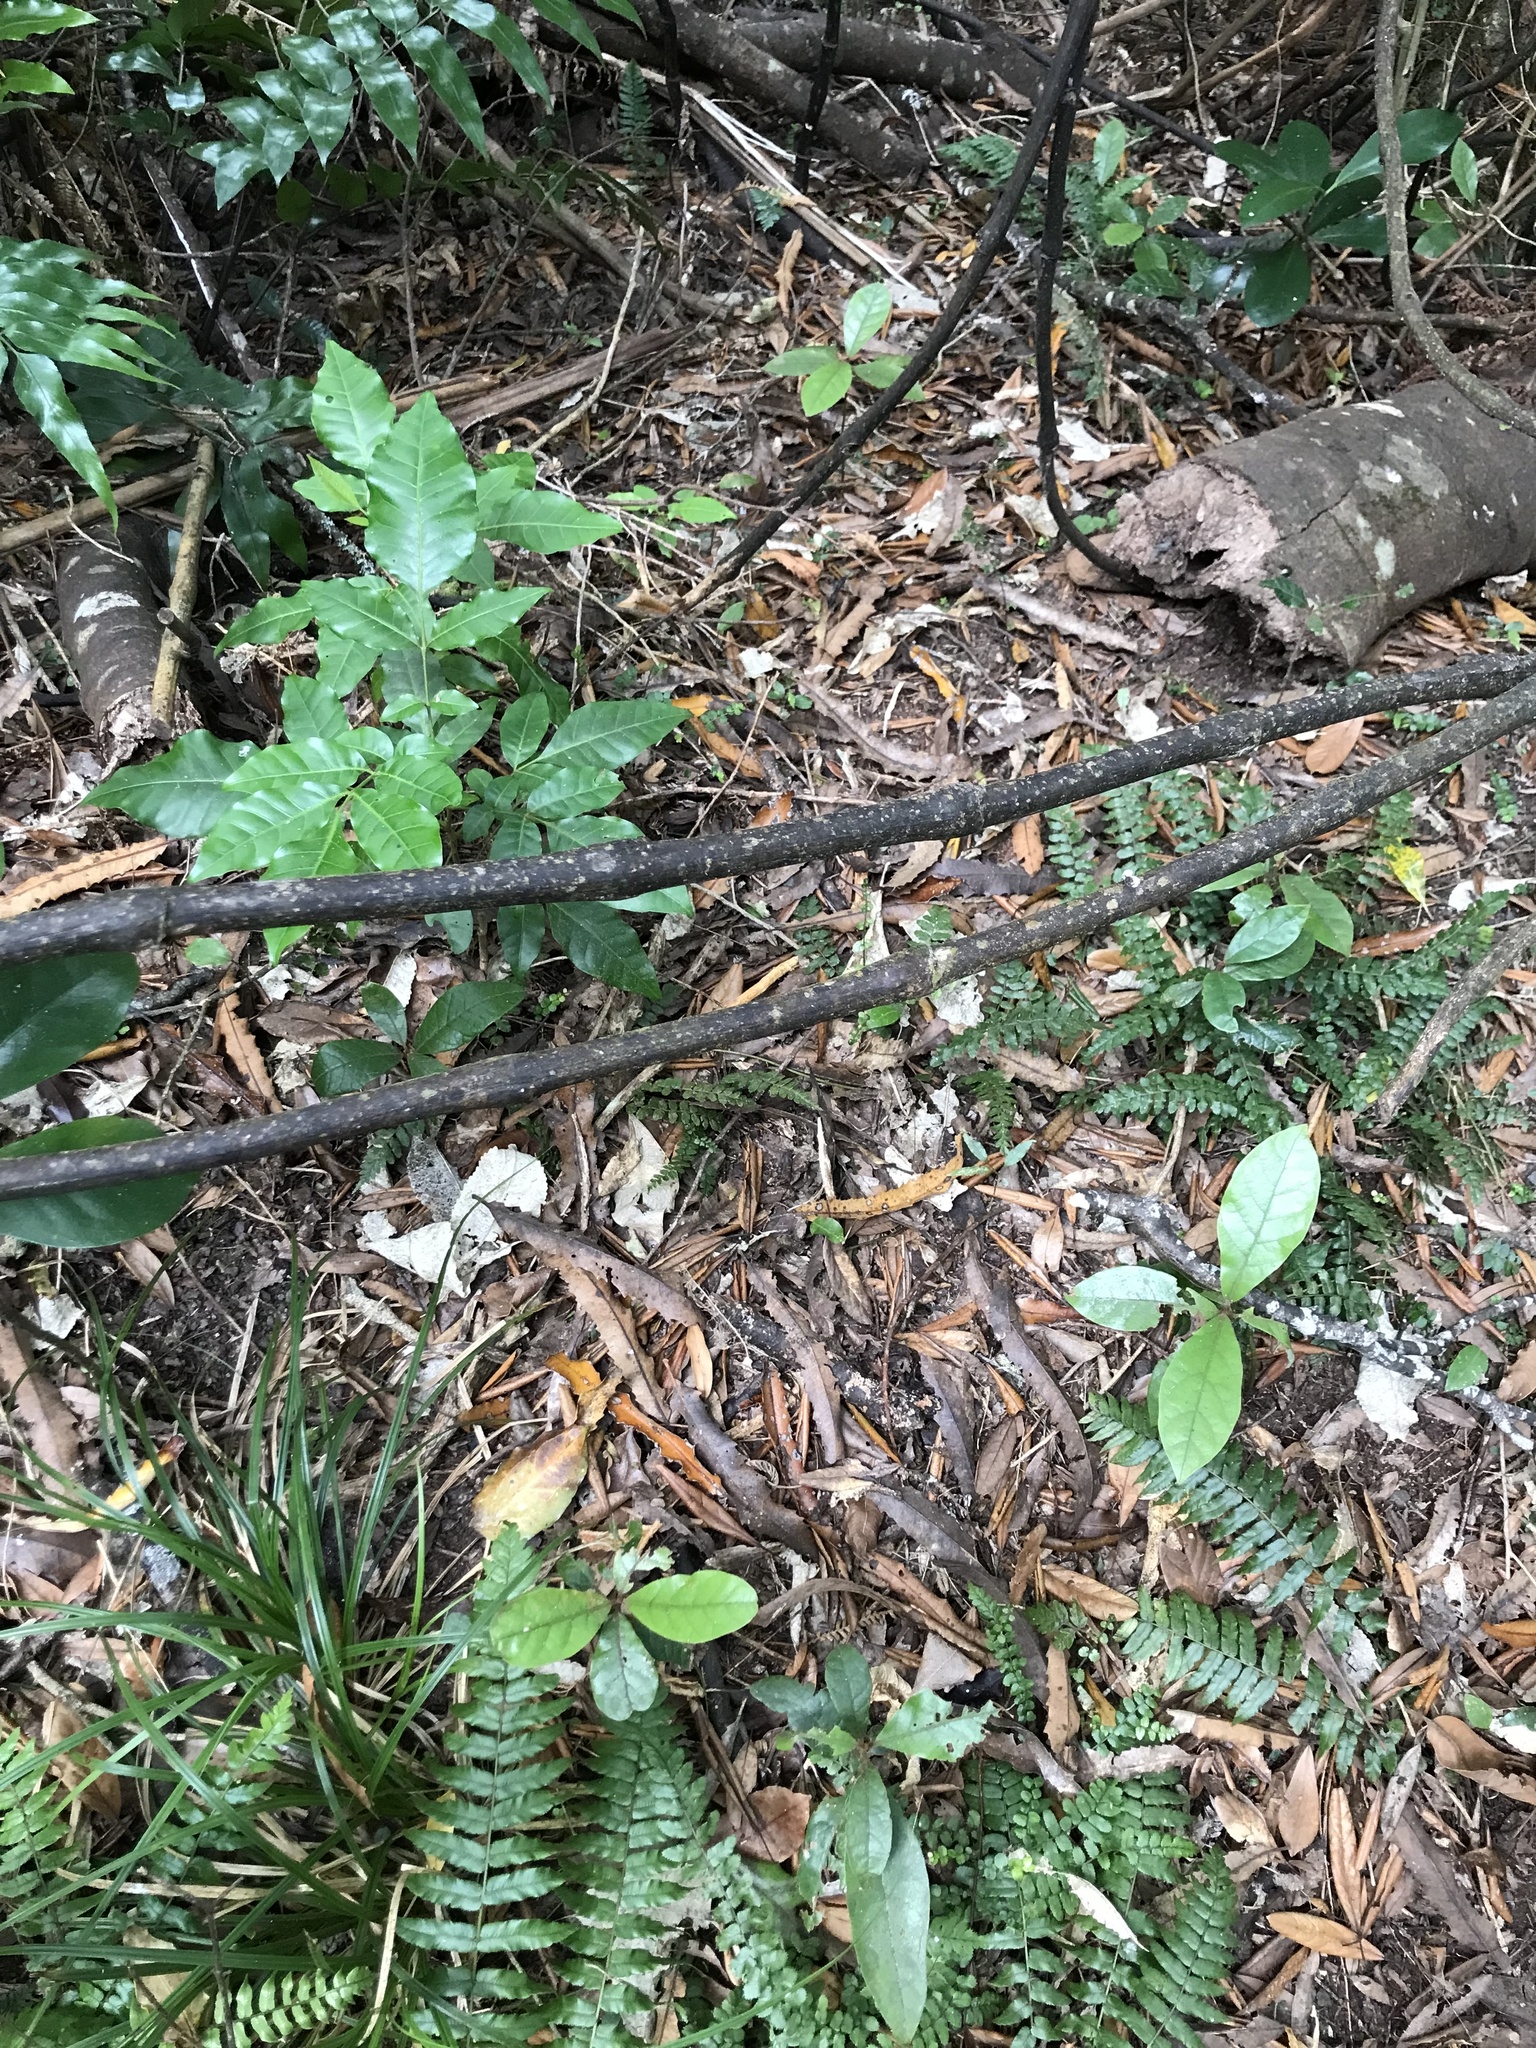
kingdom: Plantae
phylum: Tracheophyta
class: Magnoliopsida
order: Laurales
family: Lauraceae
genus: Beilschmiedia
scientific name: Beilschmiedia tarairi
